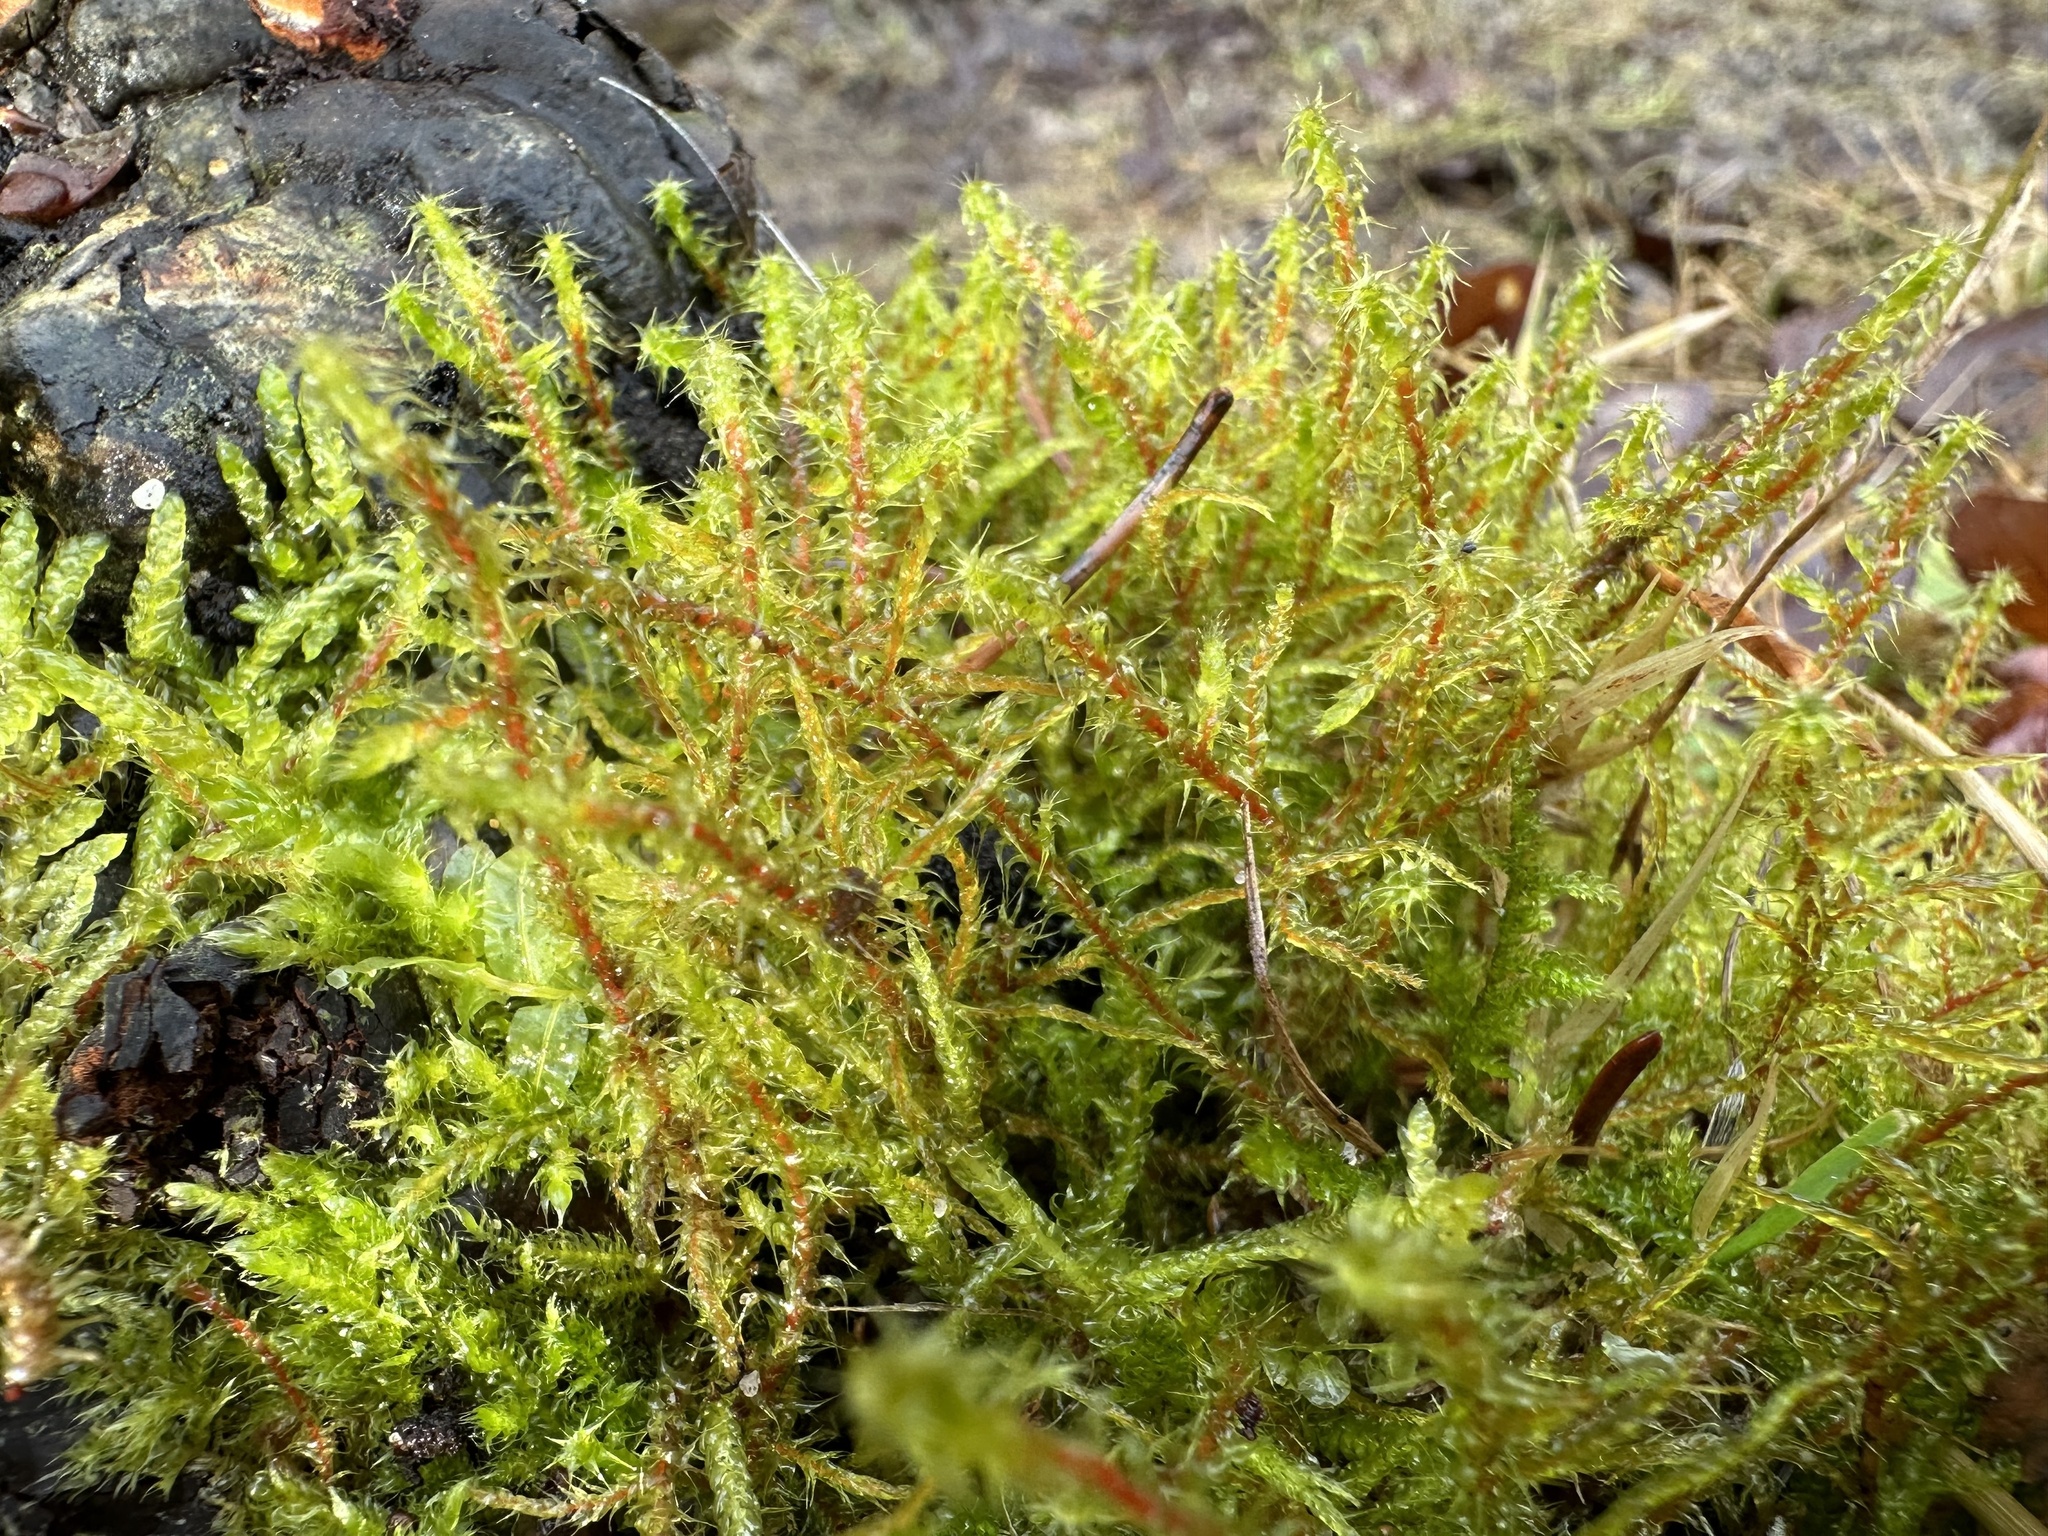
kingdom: Plantae
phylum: Bryophyta
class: Bryopsida
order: Hypnales
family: Hylocomiaceae
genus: Rhytidiadelphus
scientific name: Rhytidiadelphus squarrosus
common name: Springy turf-moss
